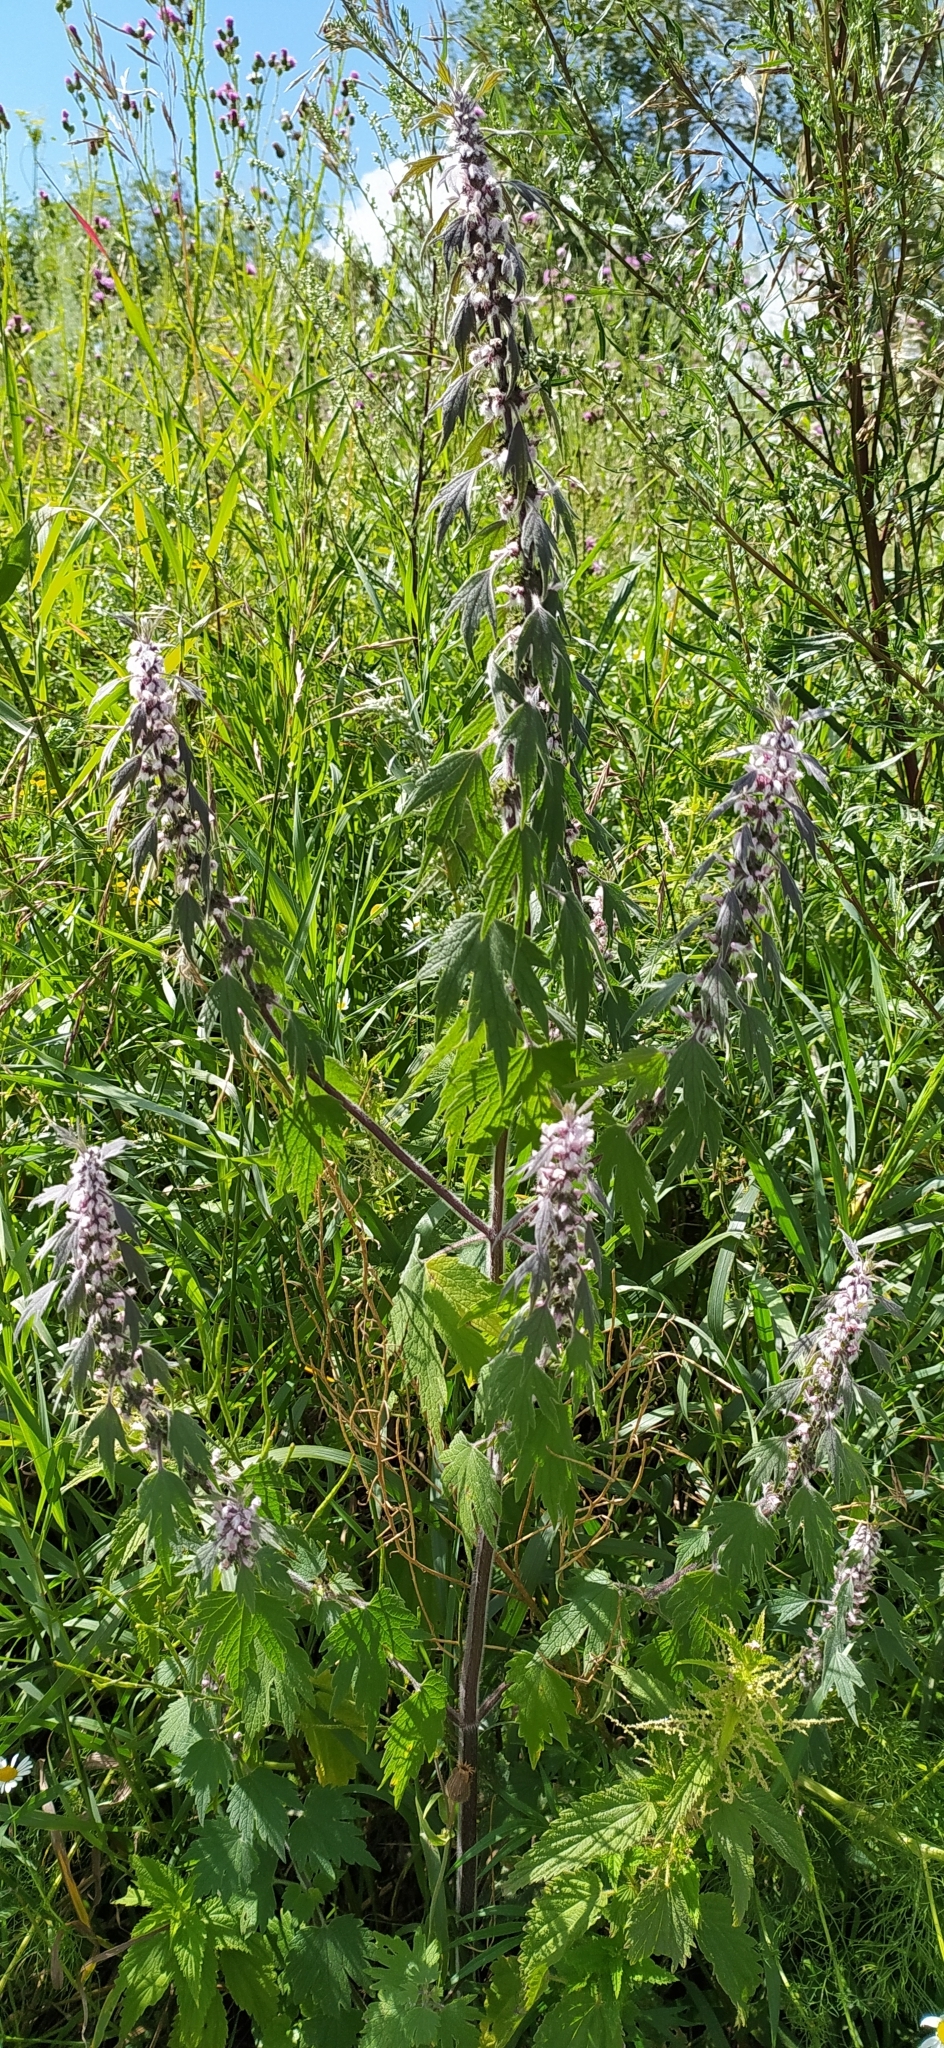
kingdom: Plantae
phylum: Tracheophyta
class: Magnoliopsida
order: Lamiales
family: Lamiaceae
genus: Leonurus
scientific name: Leonurus quinquelobatus
